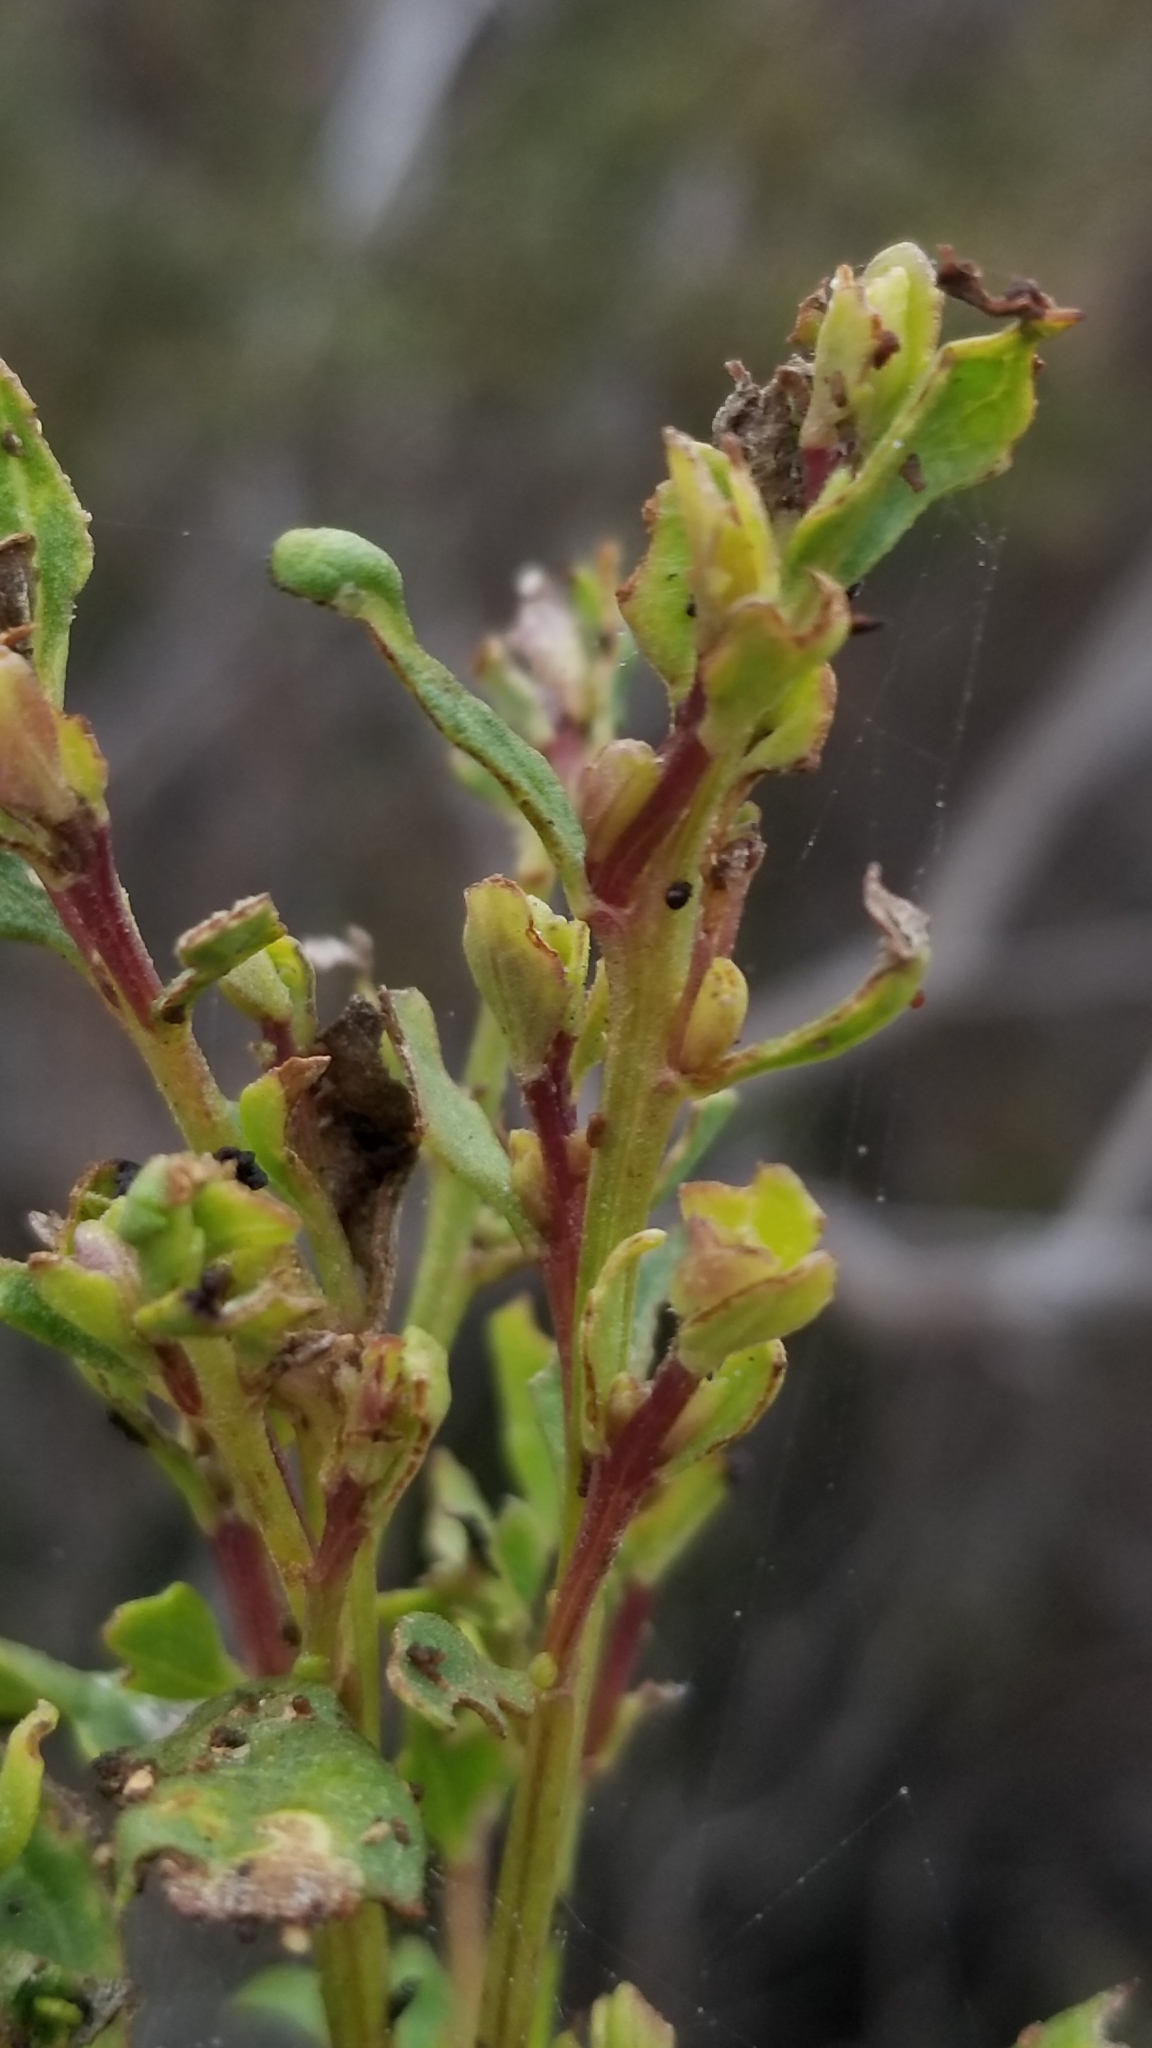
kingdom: Plantae
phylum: Tracheophyta
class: Magnoliopsida
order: Asterales
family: Asteraceae
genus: Baccharis
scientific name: Baccharis pilularis
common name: Coyotebrush
